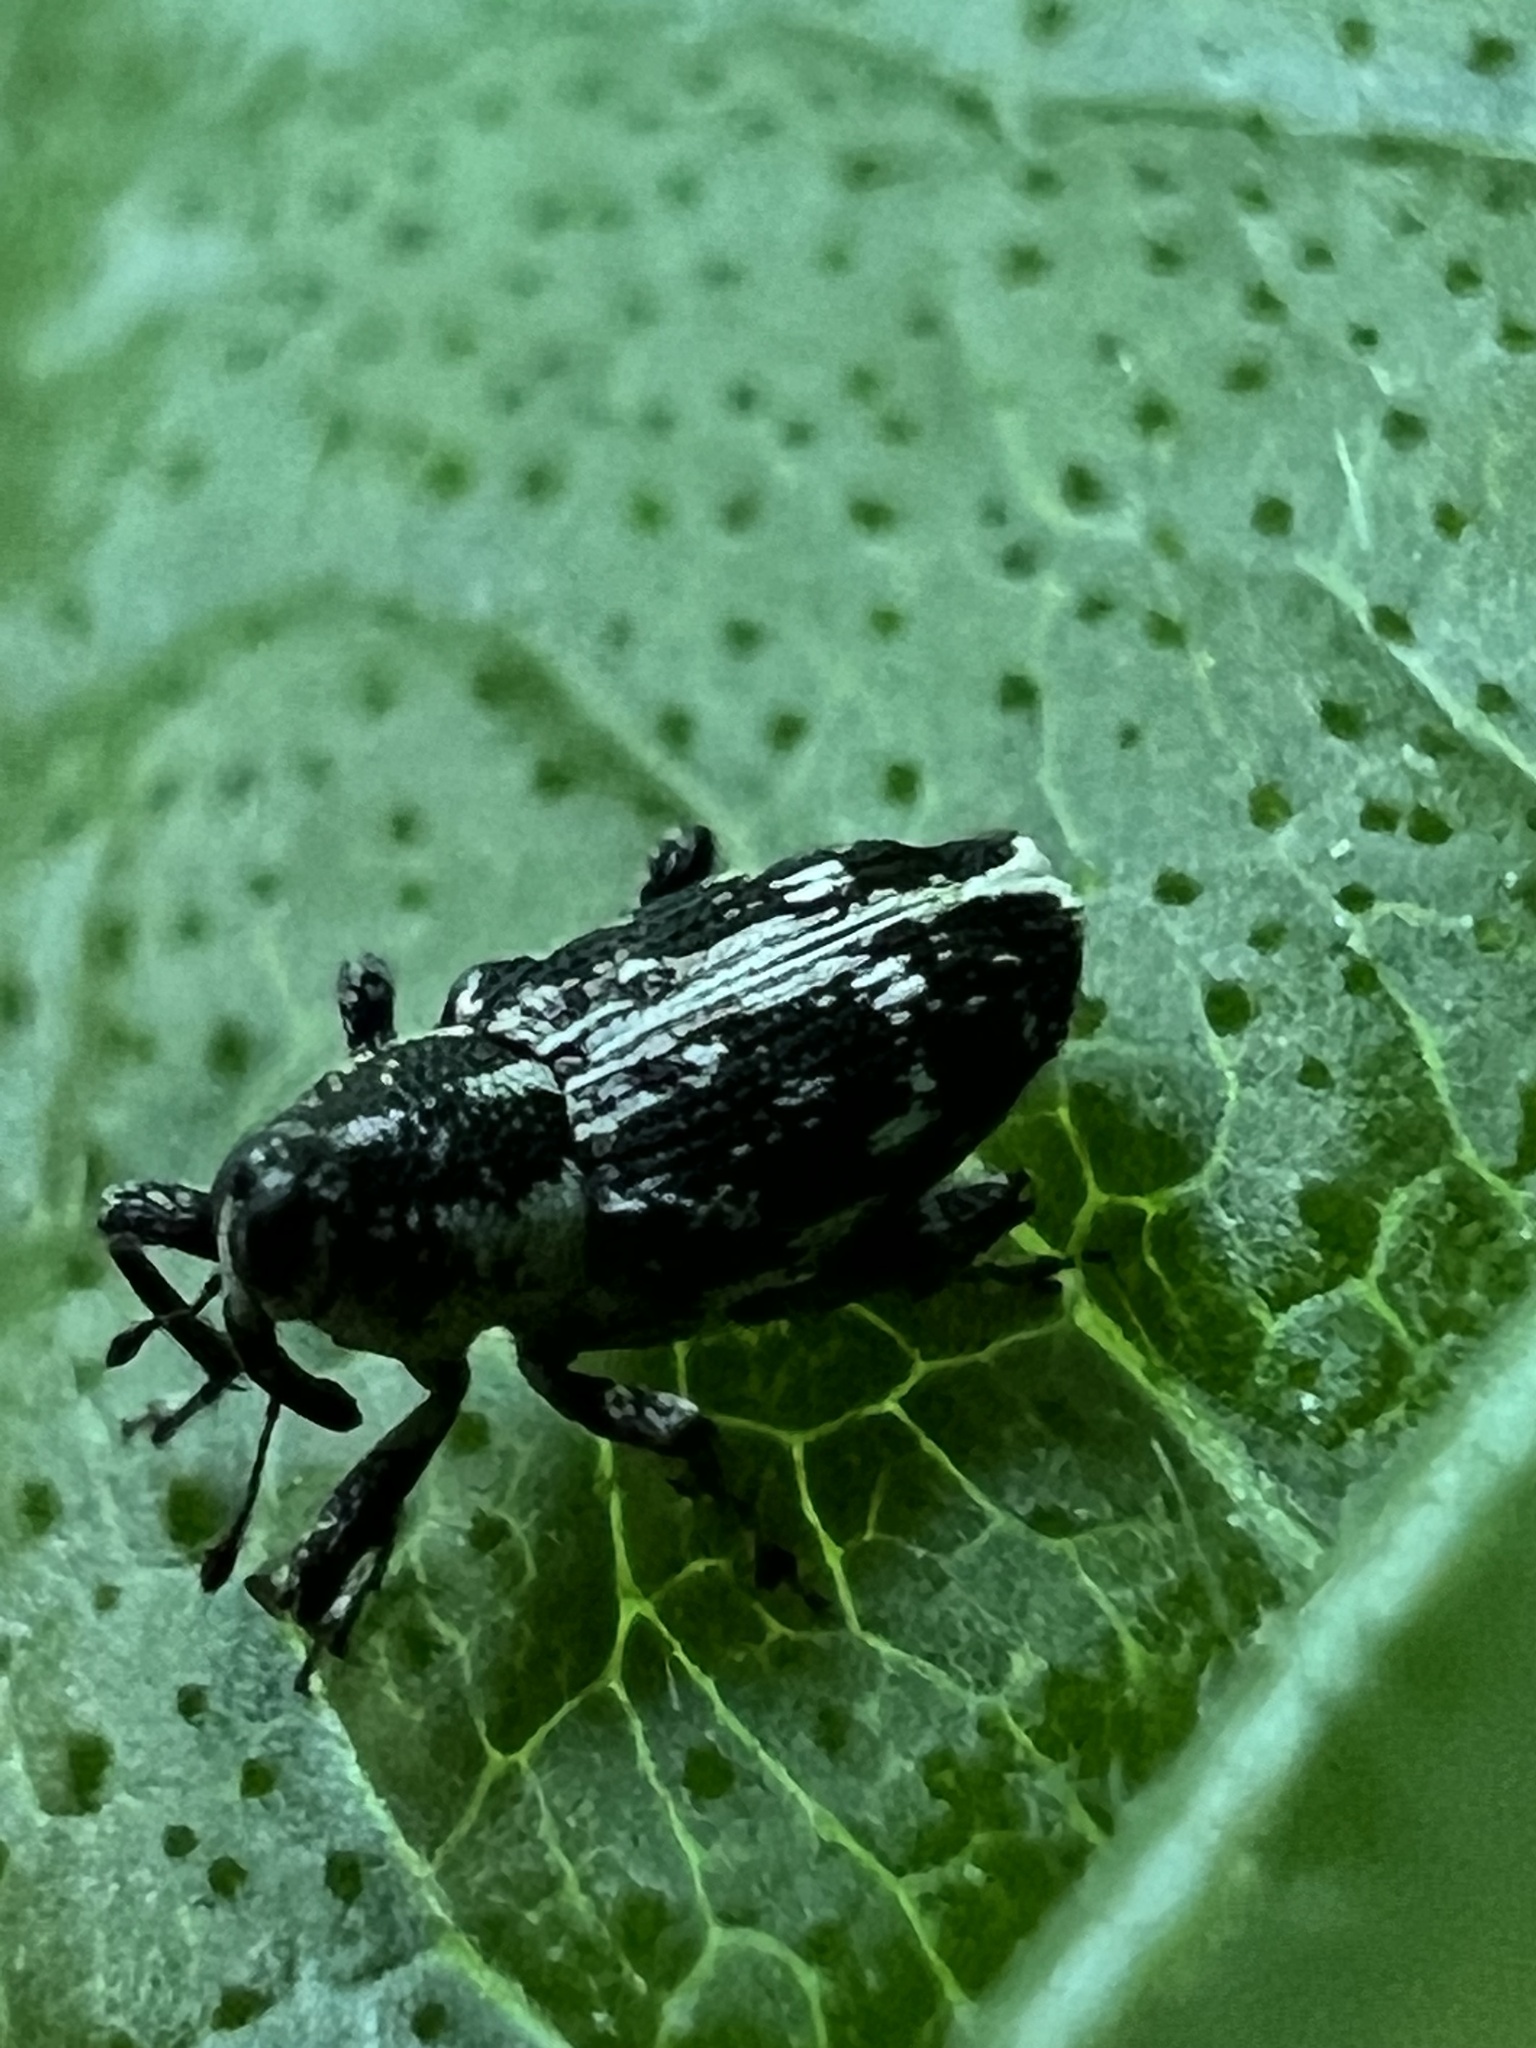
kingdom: Animalia
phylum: Arthropoda
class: Insecta
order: Coleoptera
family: Curculionidae
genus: Cylindrocopturus
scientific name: Cylindrocopturus quercus
